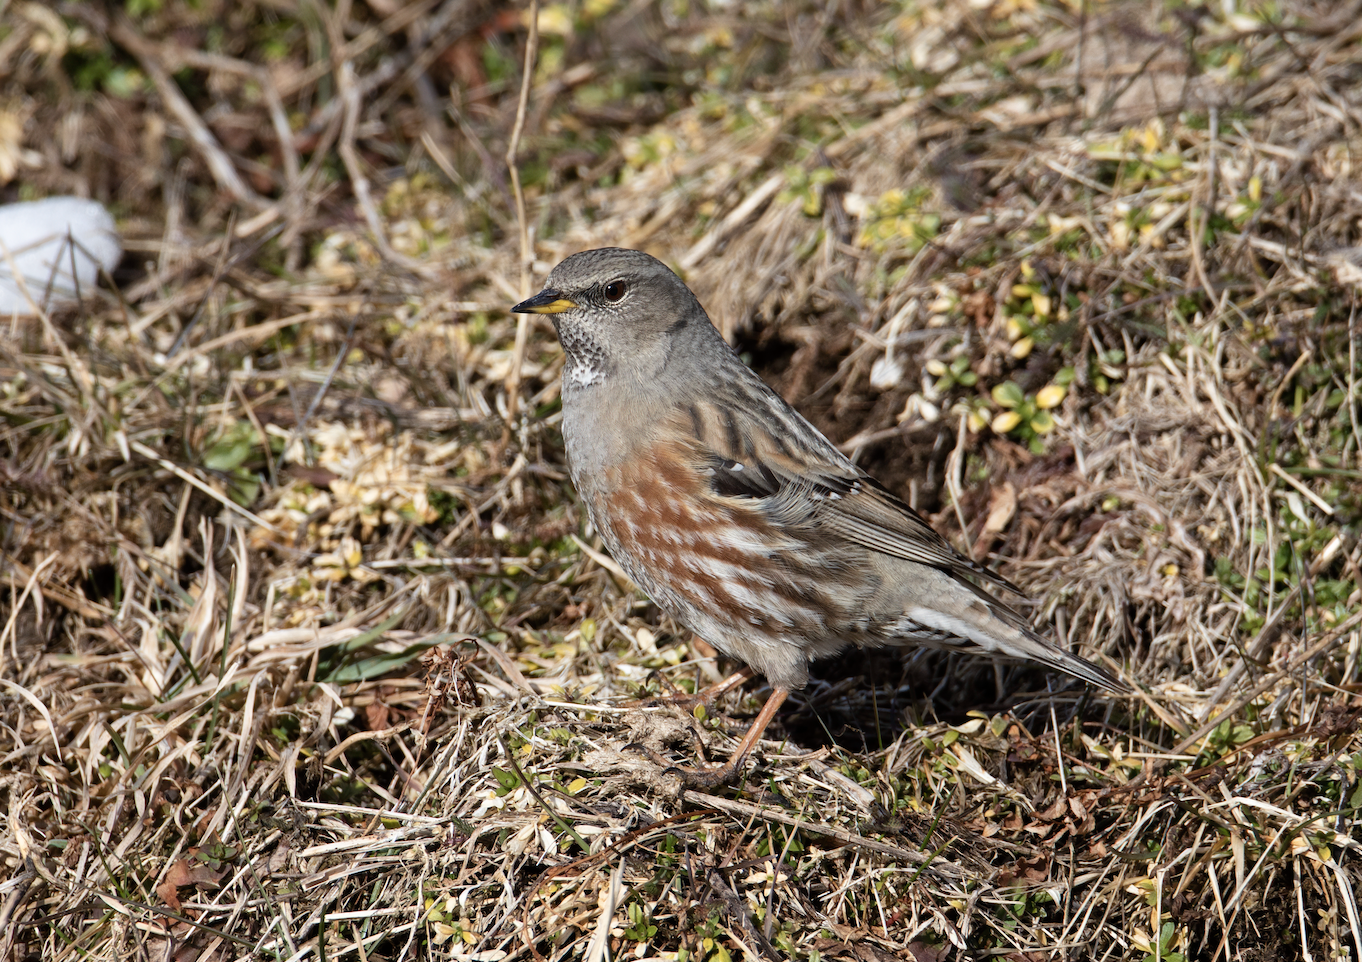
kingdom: Animalia
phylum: Chordata
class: Aves
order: Passeriformes
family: Prunellidae
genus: Prunella
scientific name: Prunella collaris
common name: Alpine accentor
